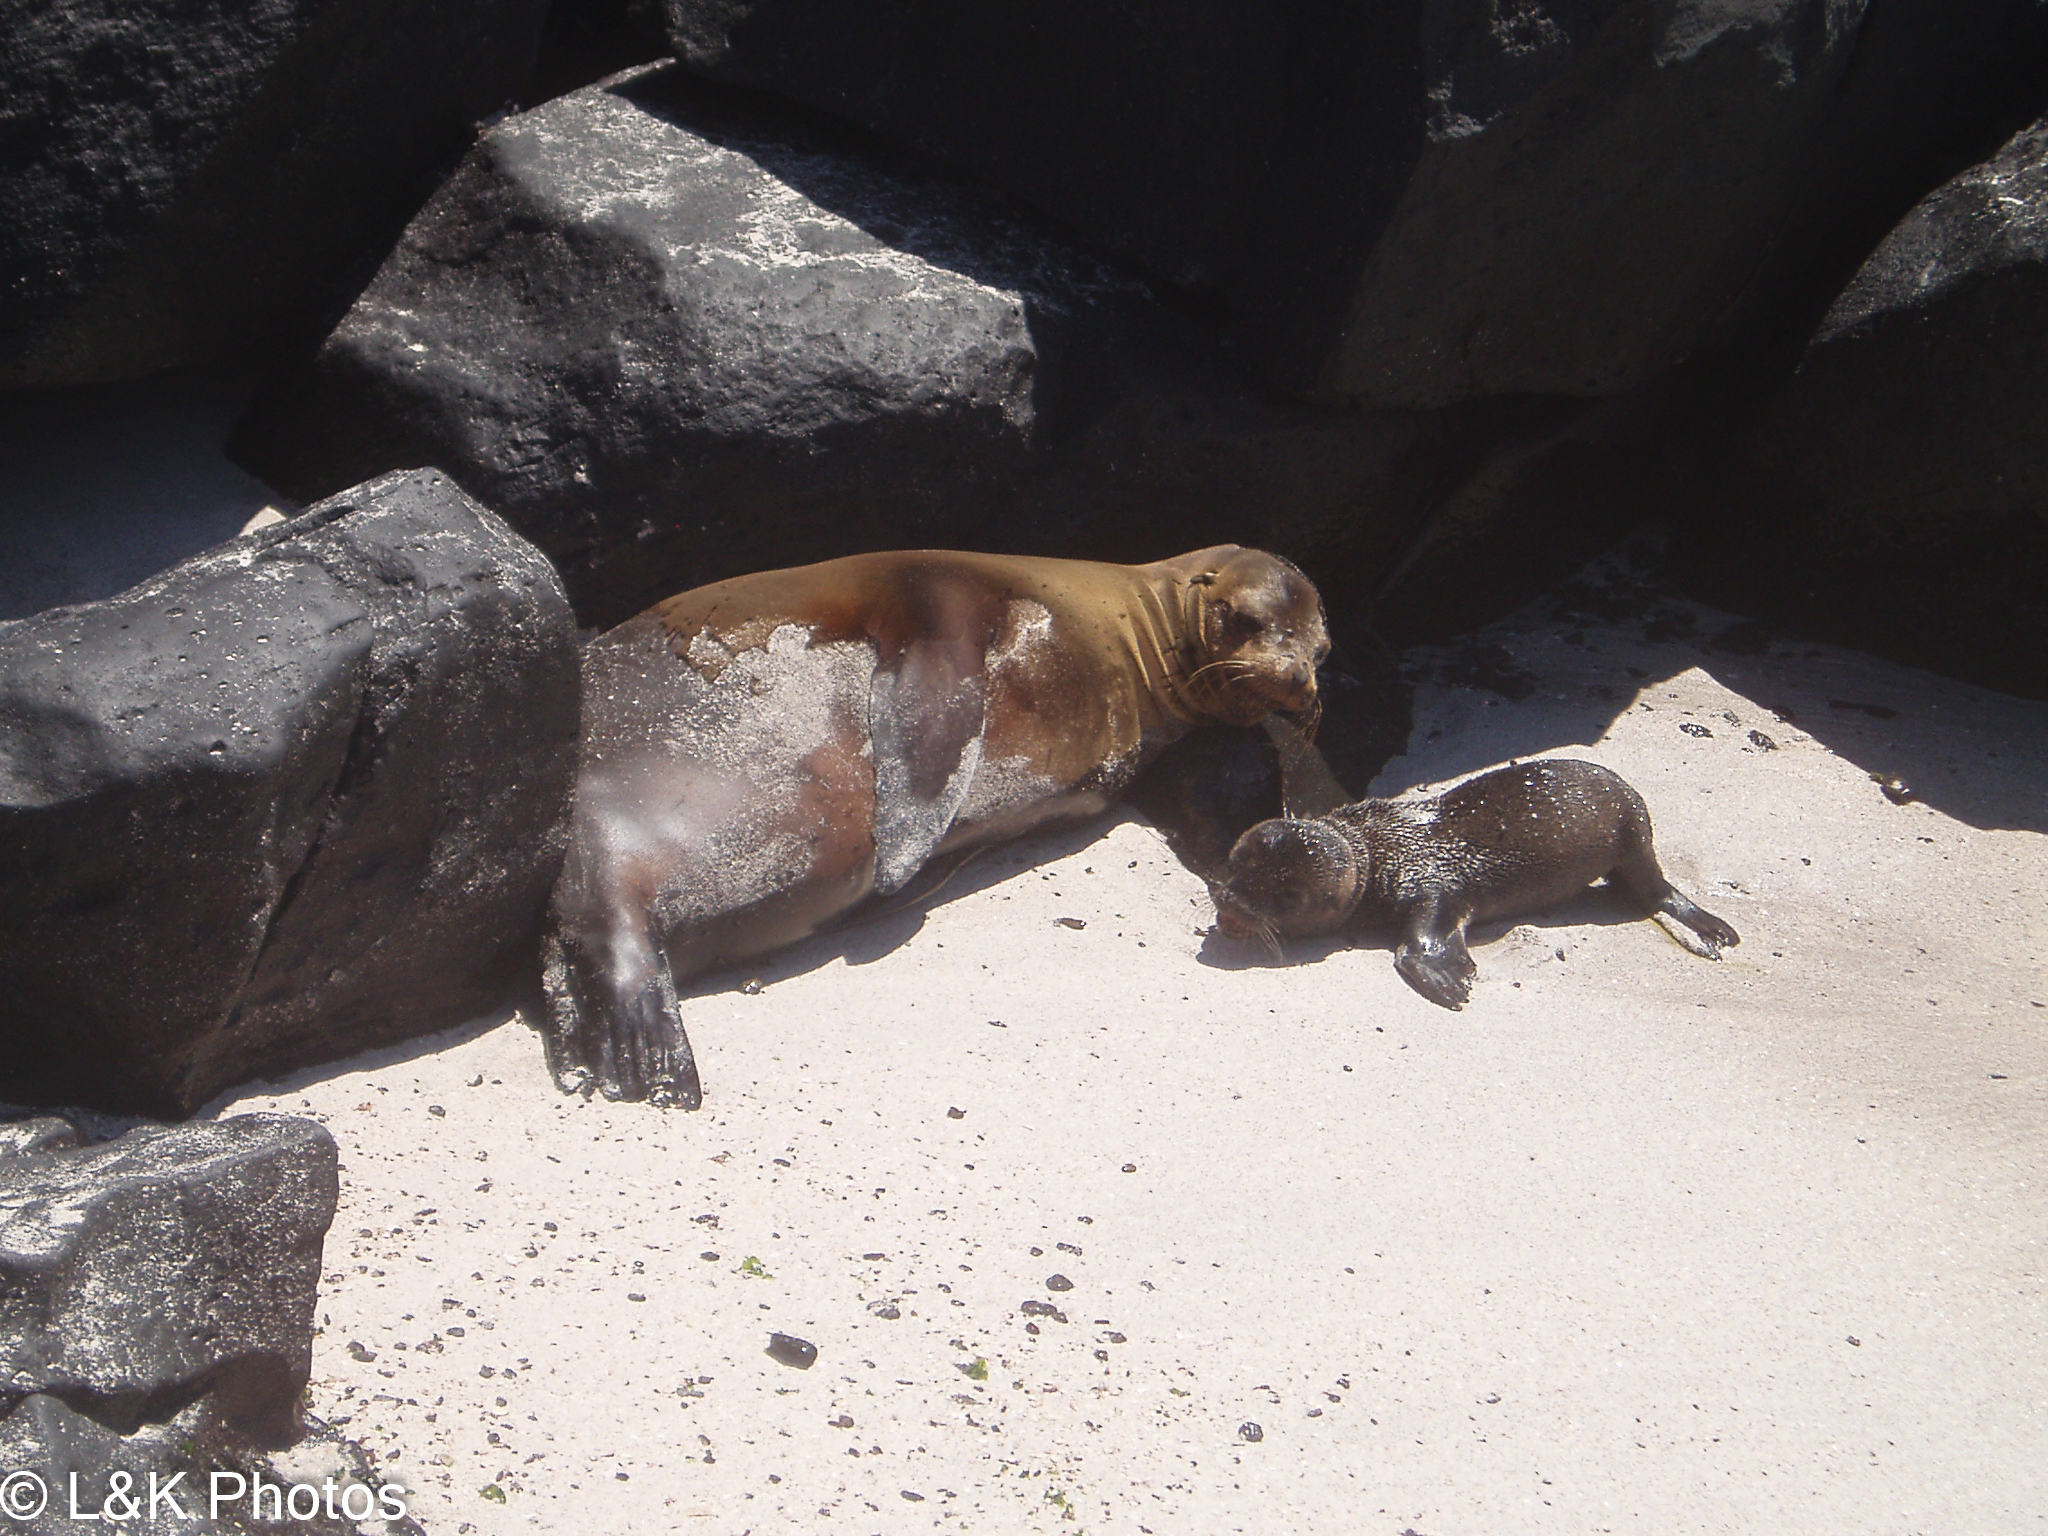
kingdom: Animalia
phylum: Chordata
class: Mammalia
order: Carnivora
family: Otariidae
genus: Zalophus
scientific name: Zalophus wollebaeki
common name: Galapagos sea lion
